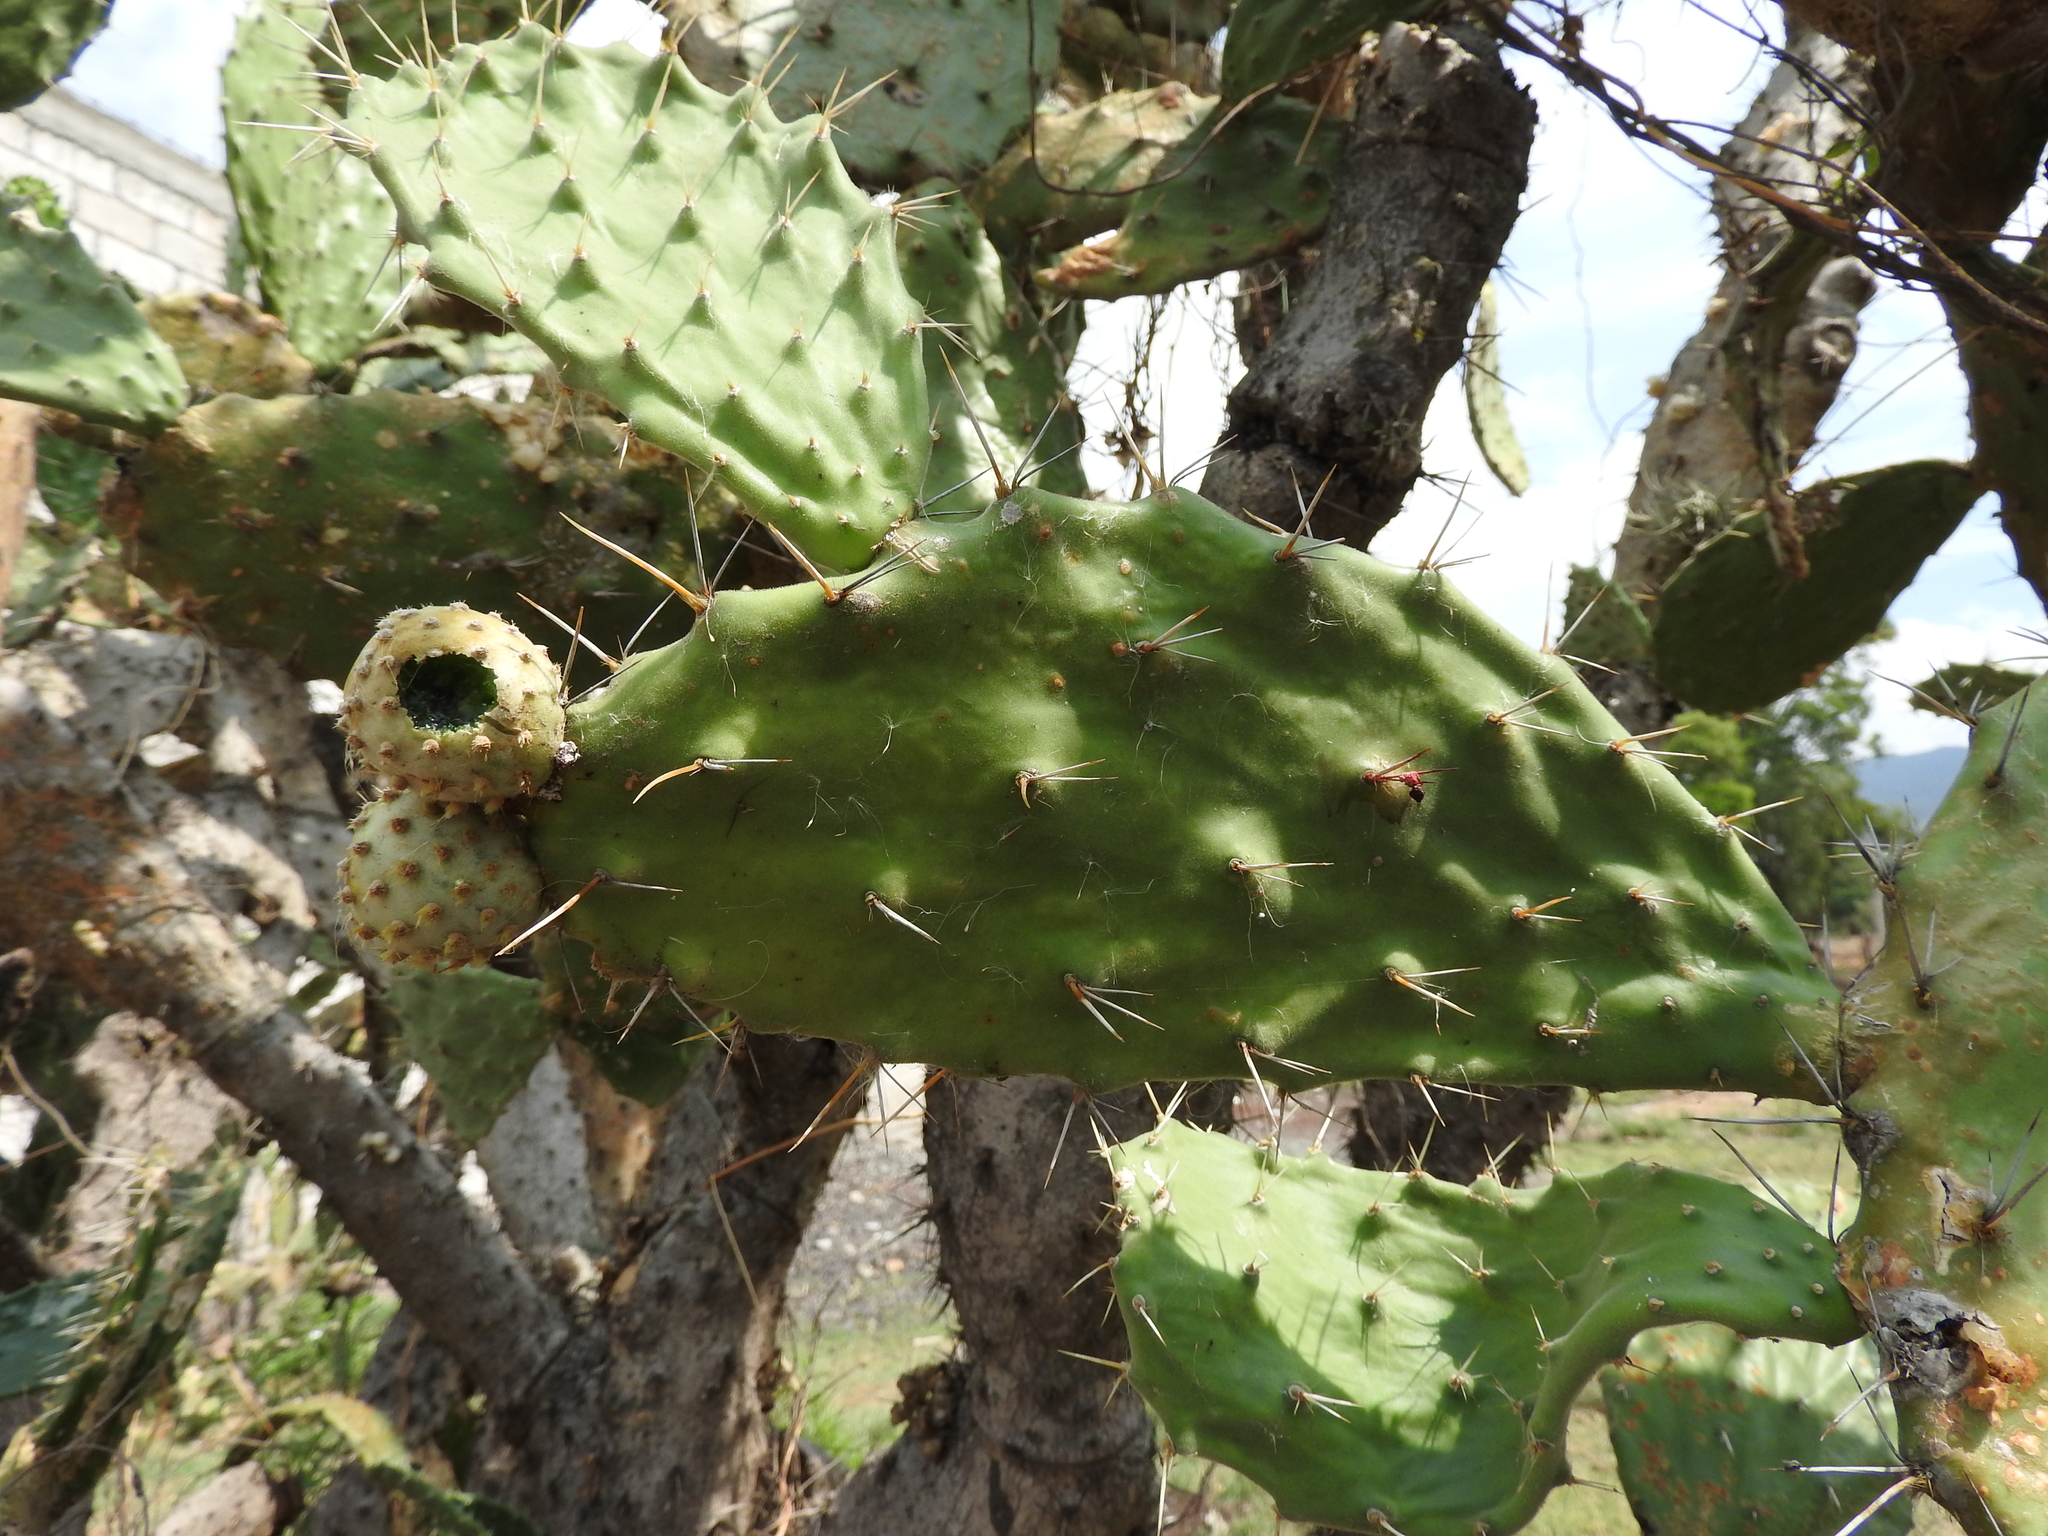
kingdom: Plantae
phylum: Tracheophyta
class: Magnoliopsida
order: Caryophyllales
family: Cactaceae
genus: Opuntia
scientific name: Opuntia tomentosa
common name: Woollyjoint pricklypear
